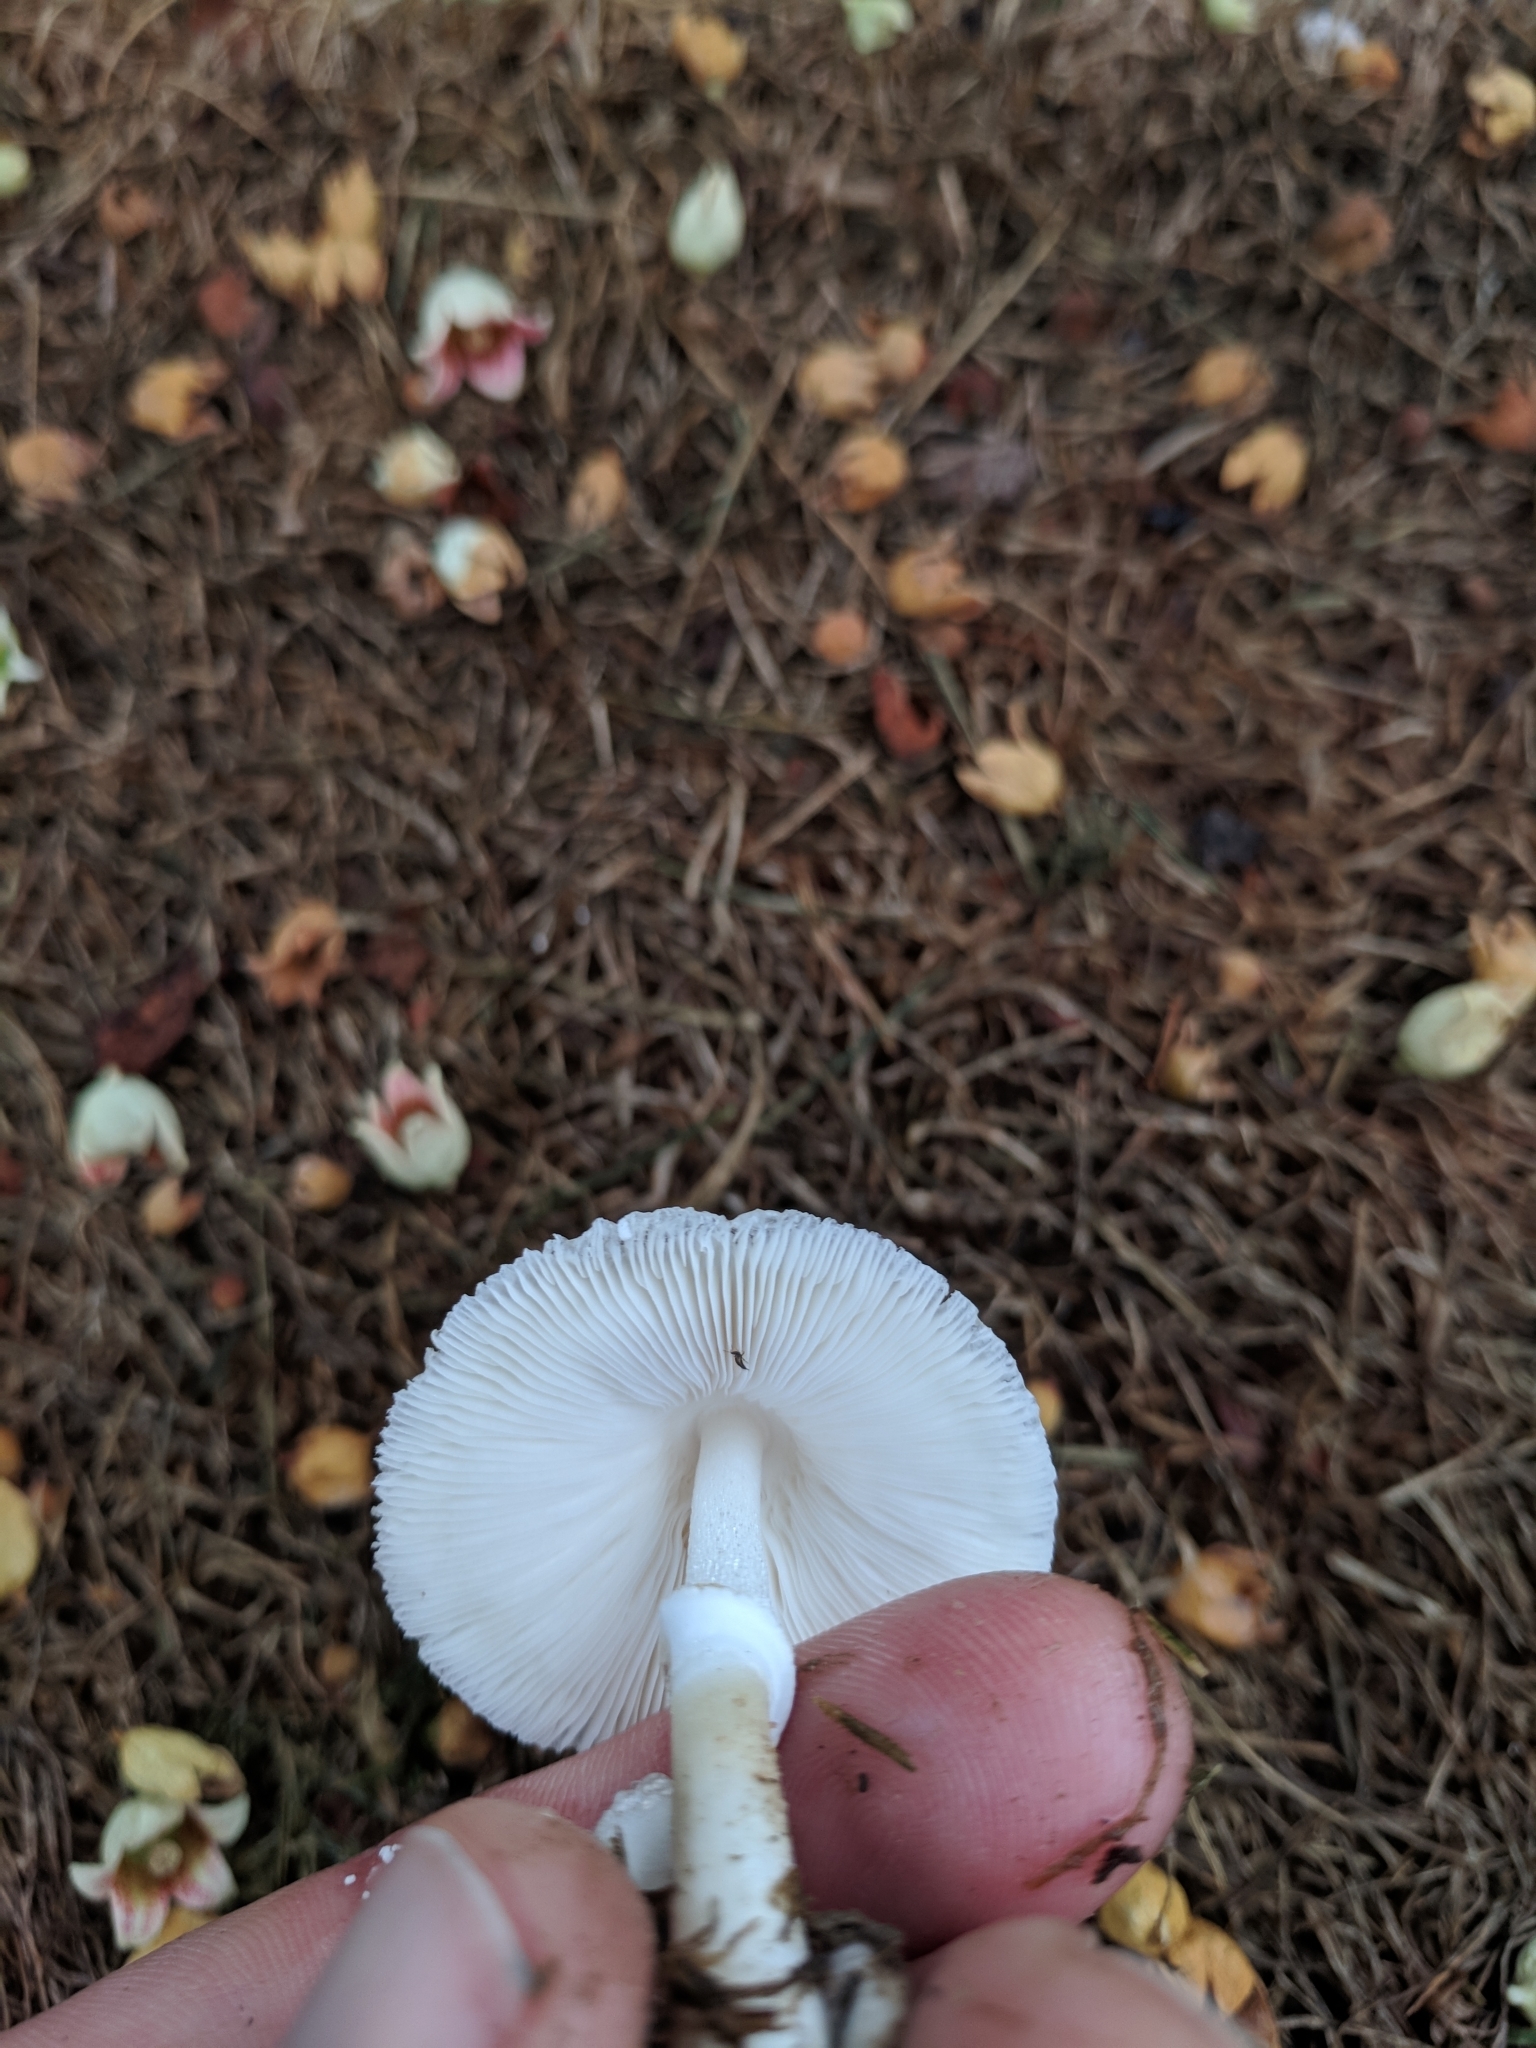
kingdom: Fungi
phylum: Basidiomycota
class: Agaricomycetes
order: Agaricales
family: Agaricaceae
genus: Leucocoprinus
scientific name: Leucocoprinus cepistipes
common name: Onion-stalk parasol
